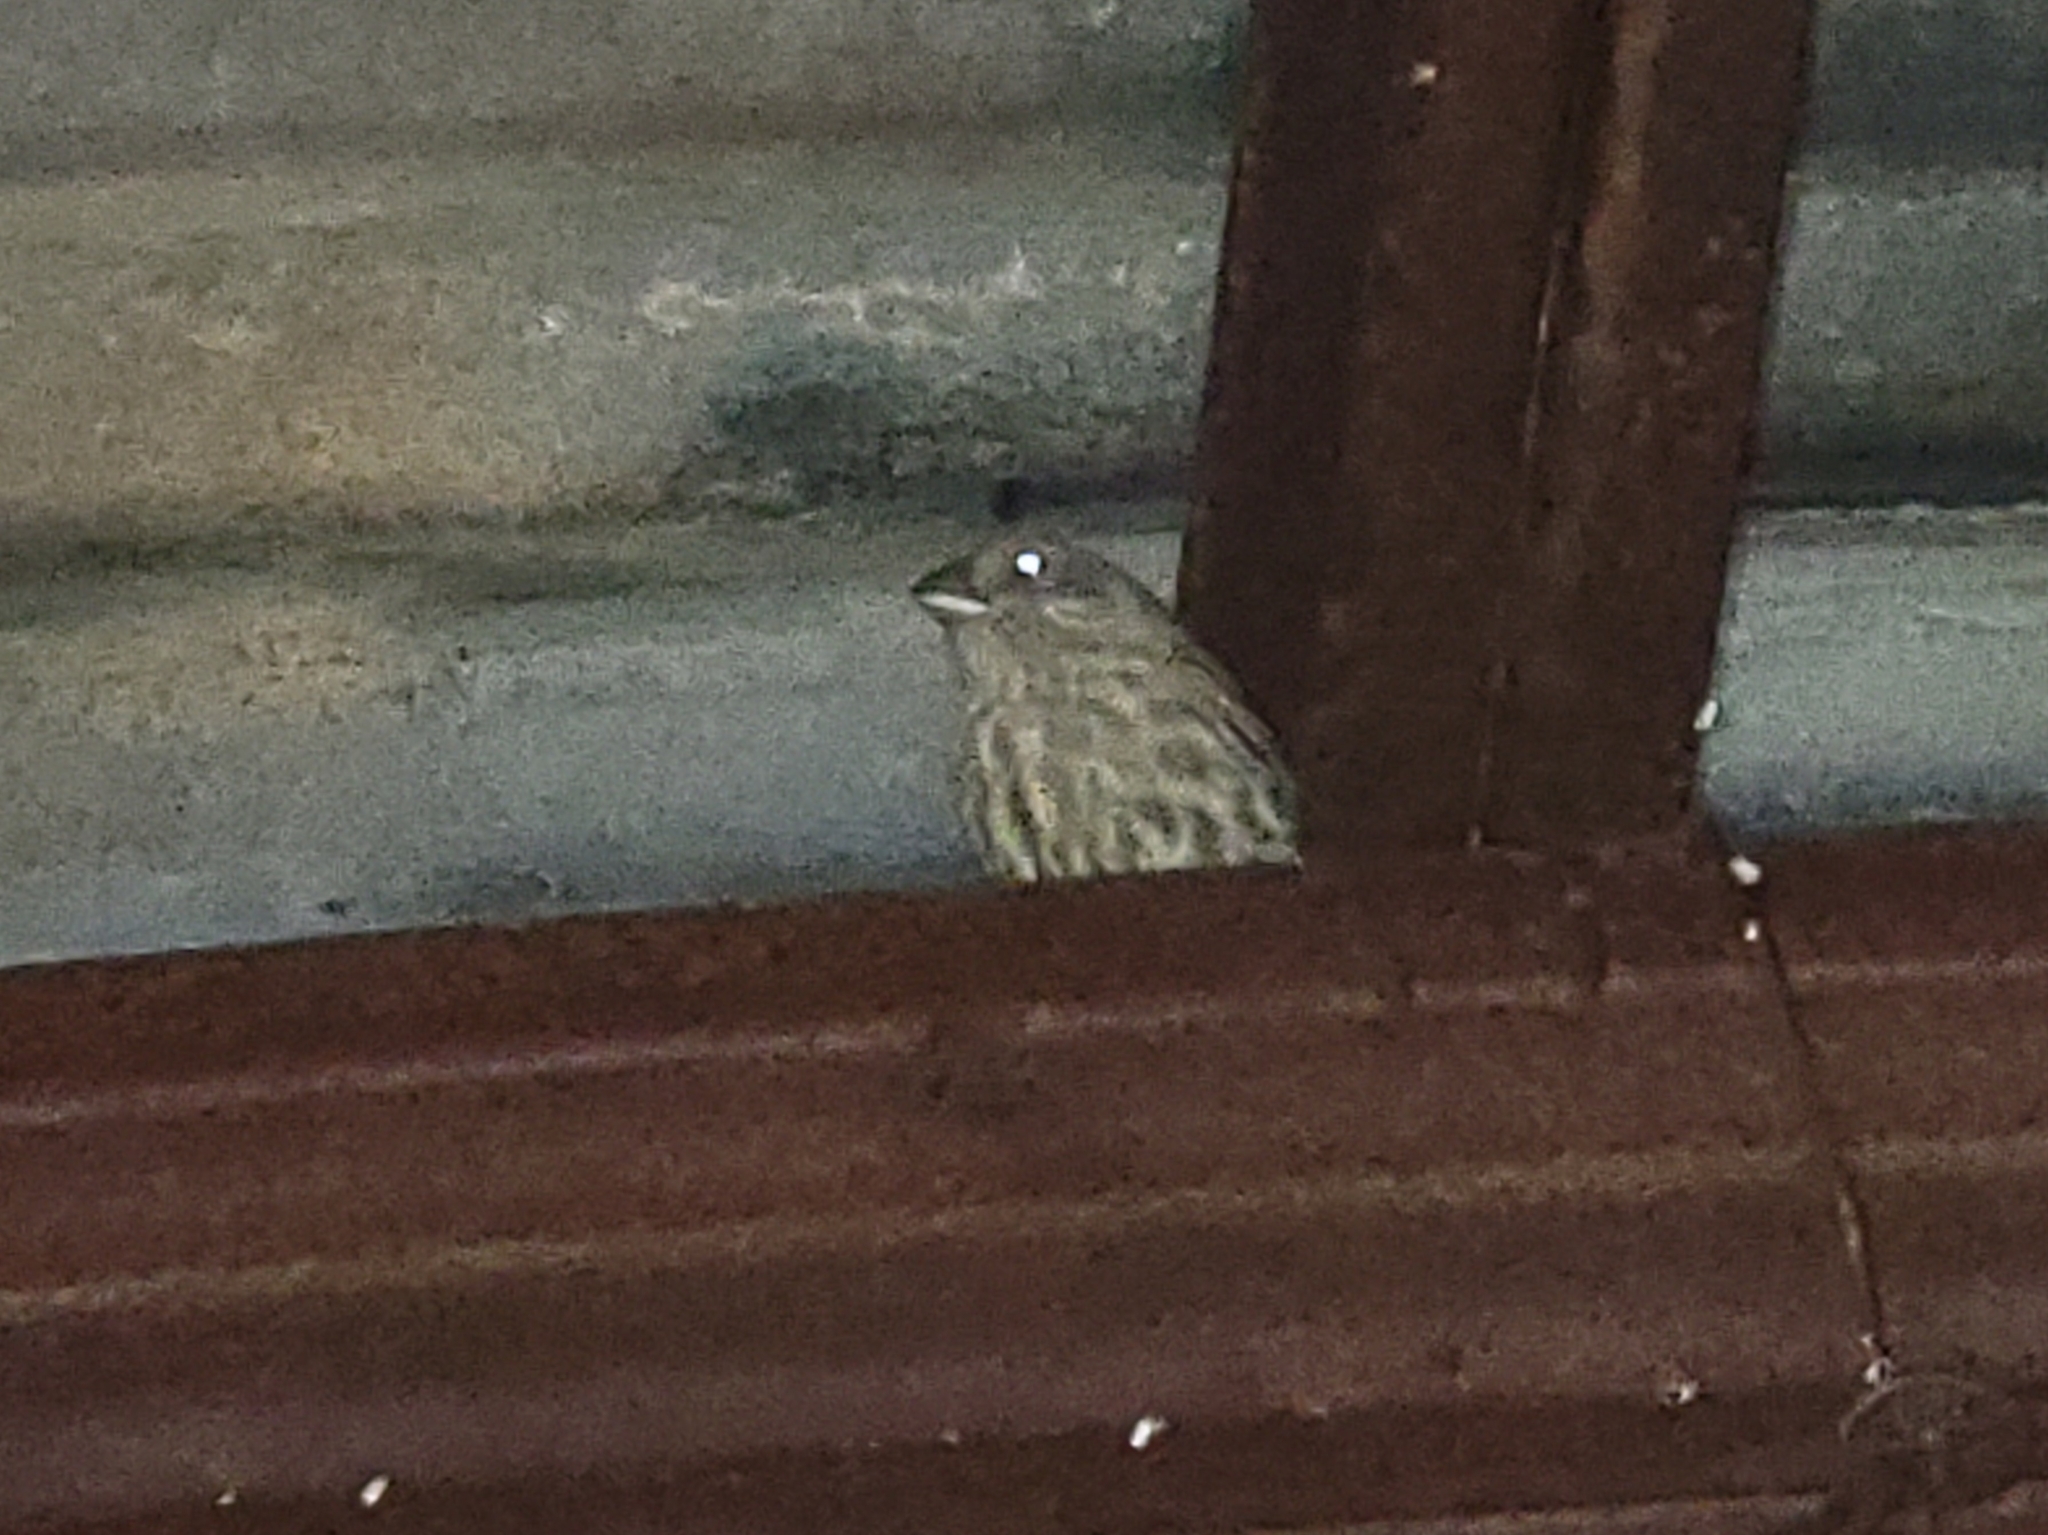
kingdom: Animalia
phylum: Chordata
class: Aves
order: Passeriformes
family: Fringillidae
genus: Haemorhous
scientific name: Haemorhous mexicanus
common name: House finch
